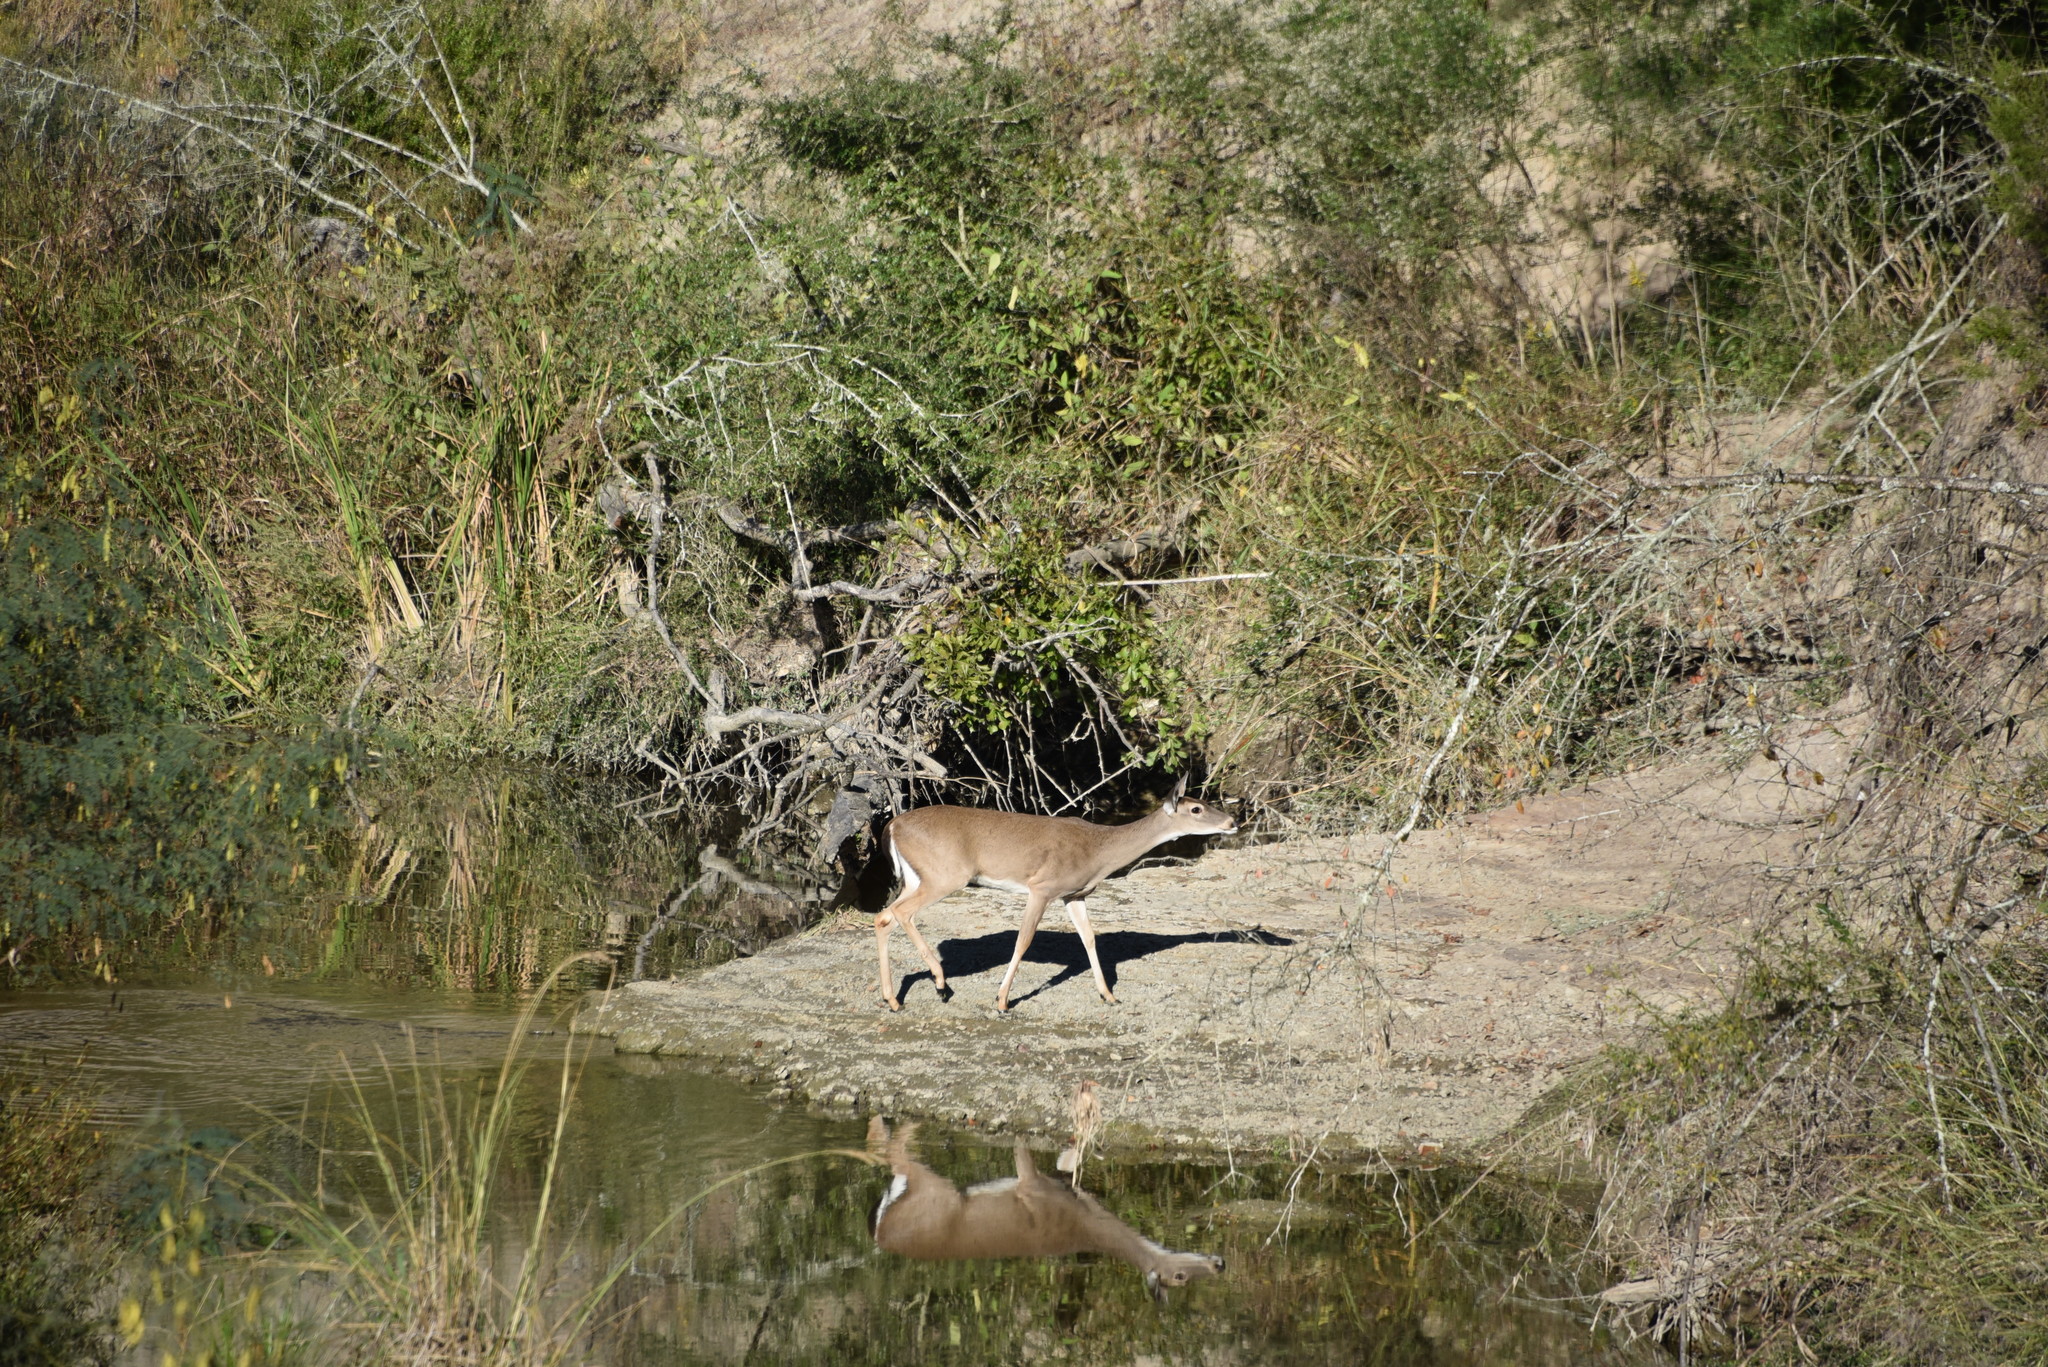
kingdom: Animalia
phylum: Chordata
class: Mammalia
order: Artiodactyla
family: Cervidae
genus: Odocoileus
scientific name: Odocoileus virginianus
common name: White-tailed deer
